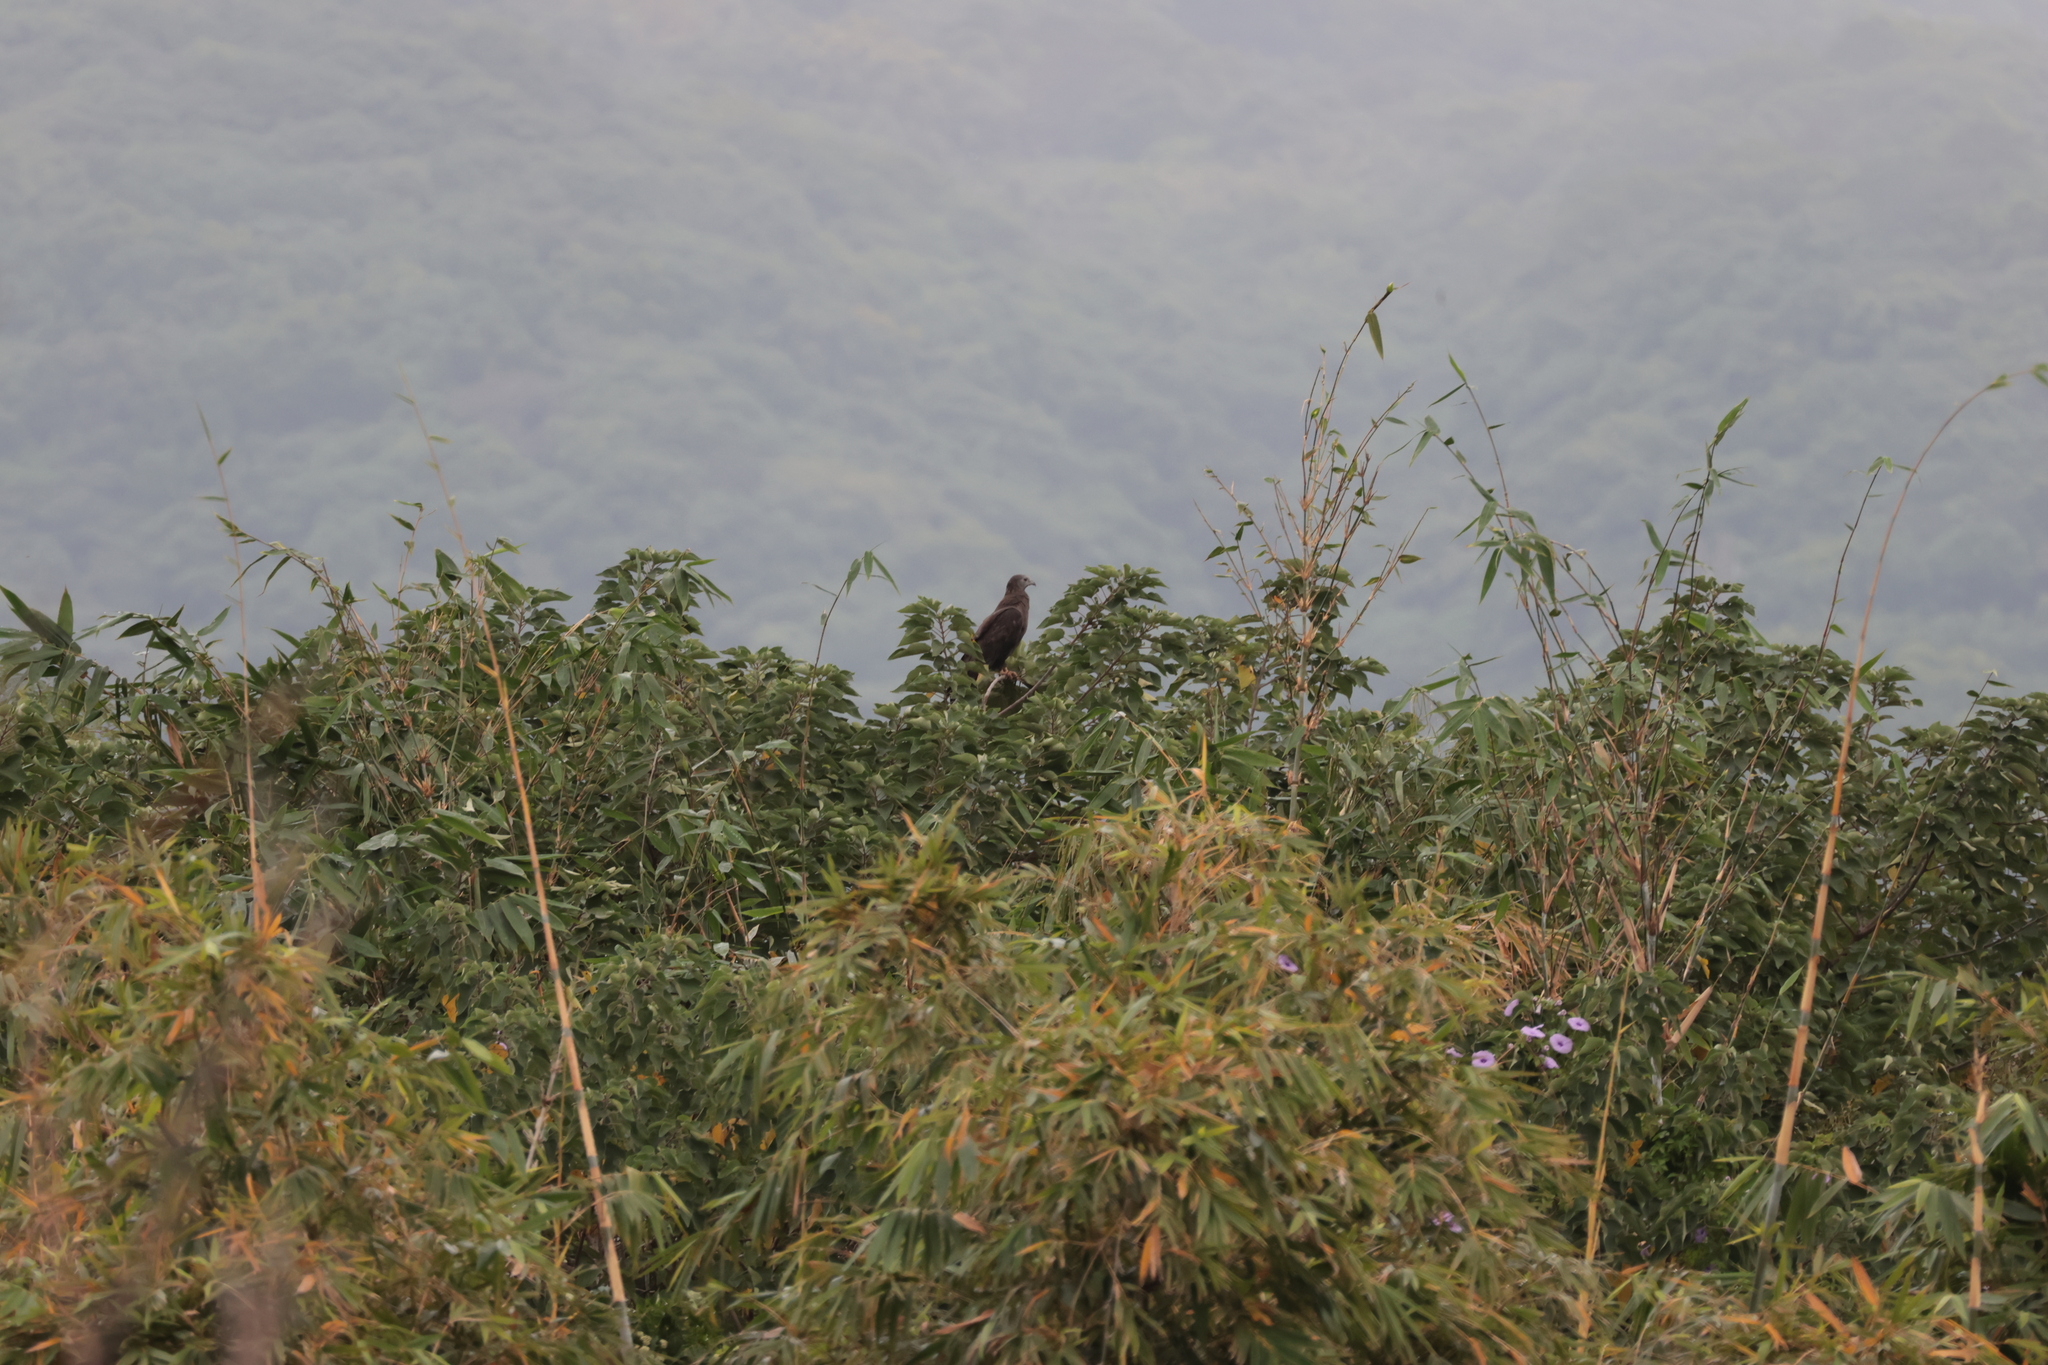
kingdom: Animalia
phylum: Chordata
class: Aves
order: Accipitriformes
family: Accipitridae
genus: Pernis
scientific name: Pernis ptilorhynchus
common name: Crested honey buzzard
